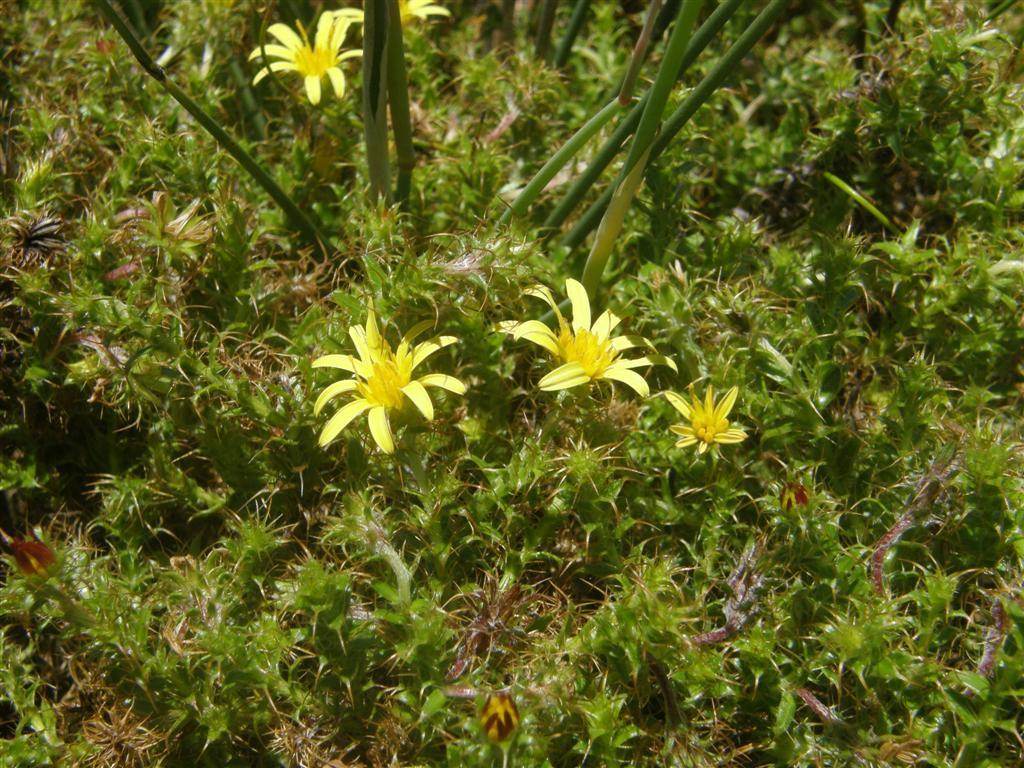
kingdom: Plantae
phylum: Tracheophyta
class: Magnoliopsida
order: Asterales
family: Asteraceae
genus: Cullumia
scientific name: Cullumia setosa
